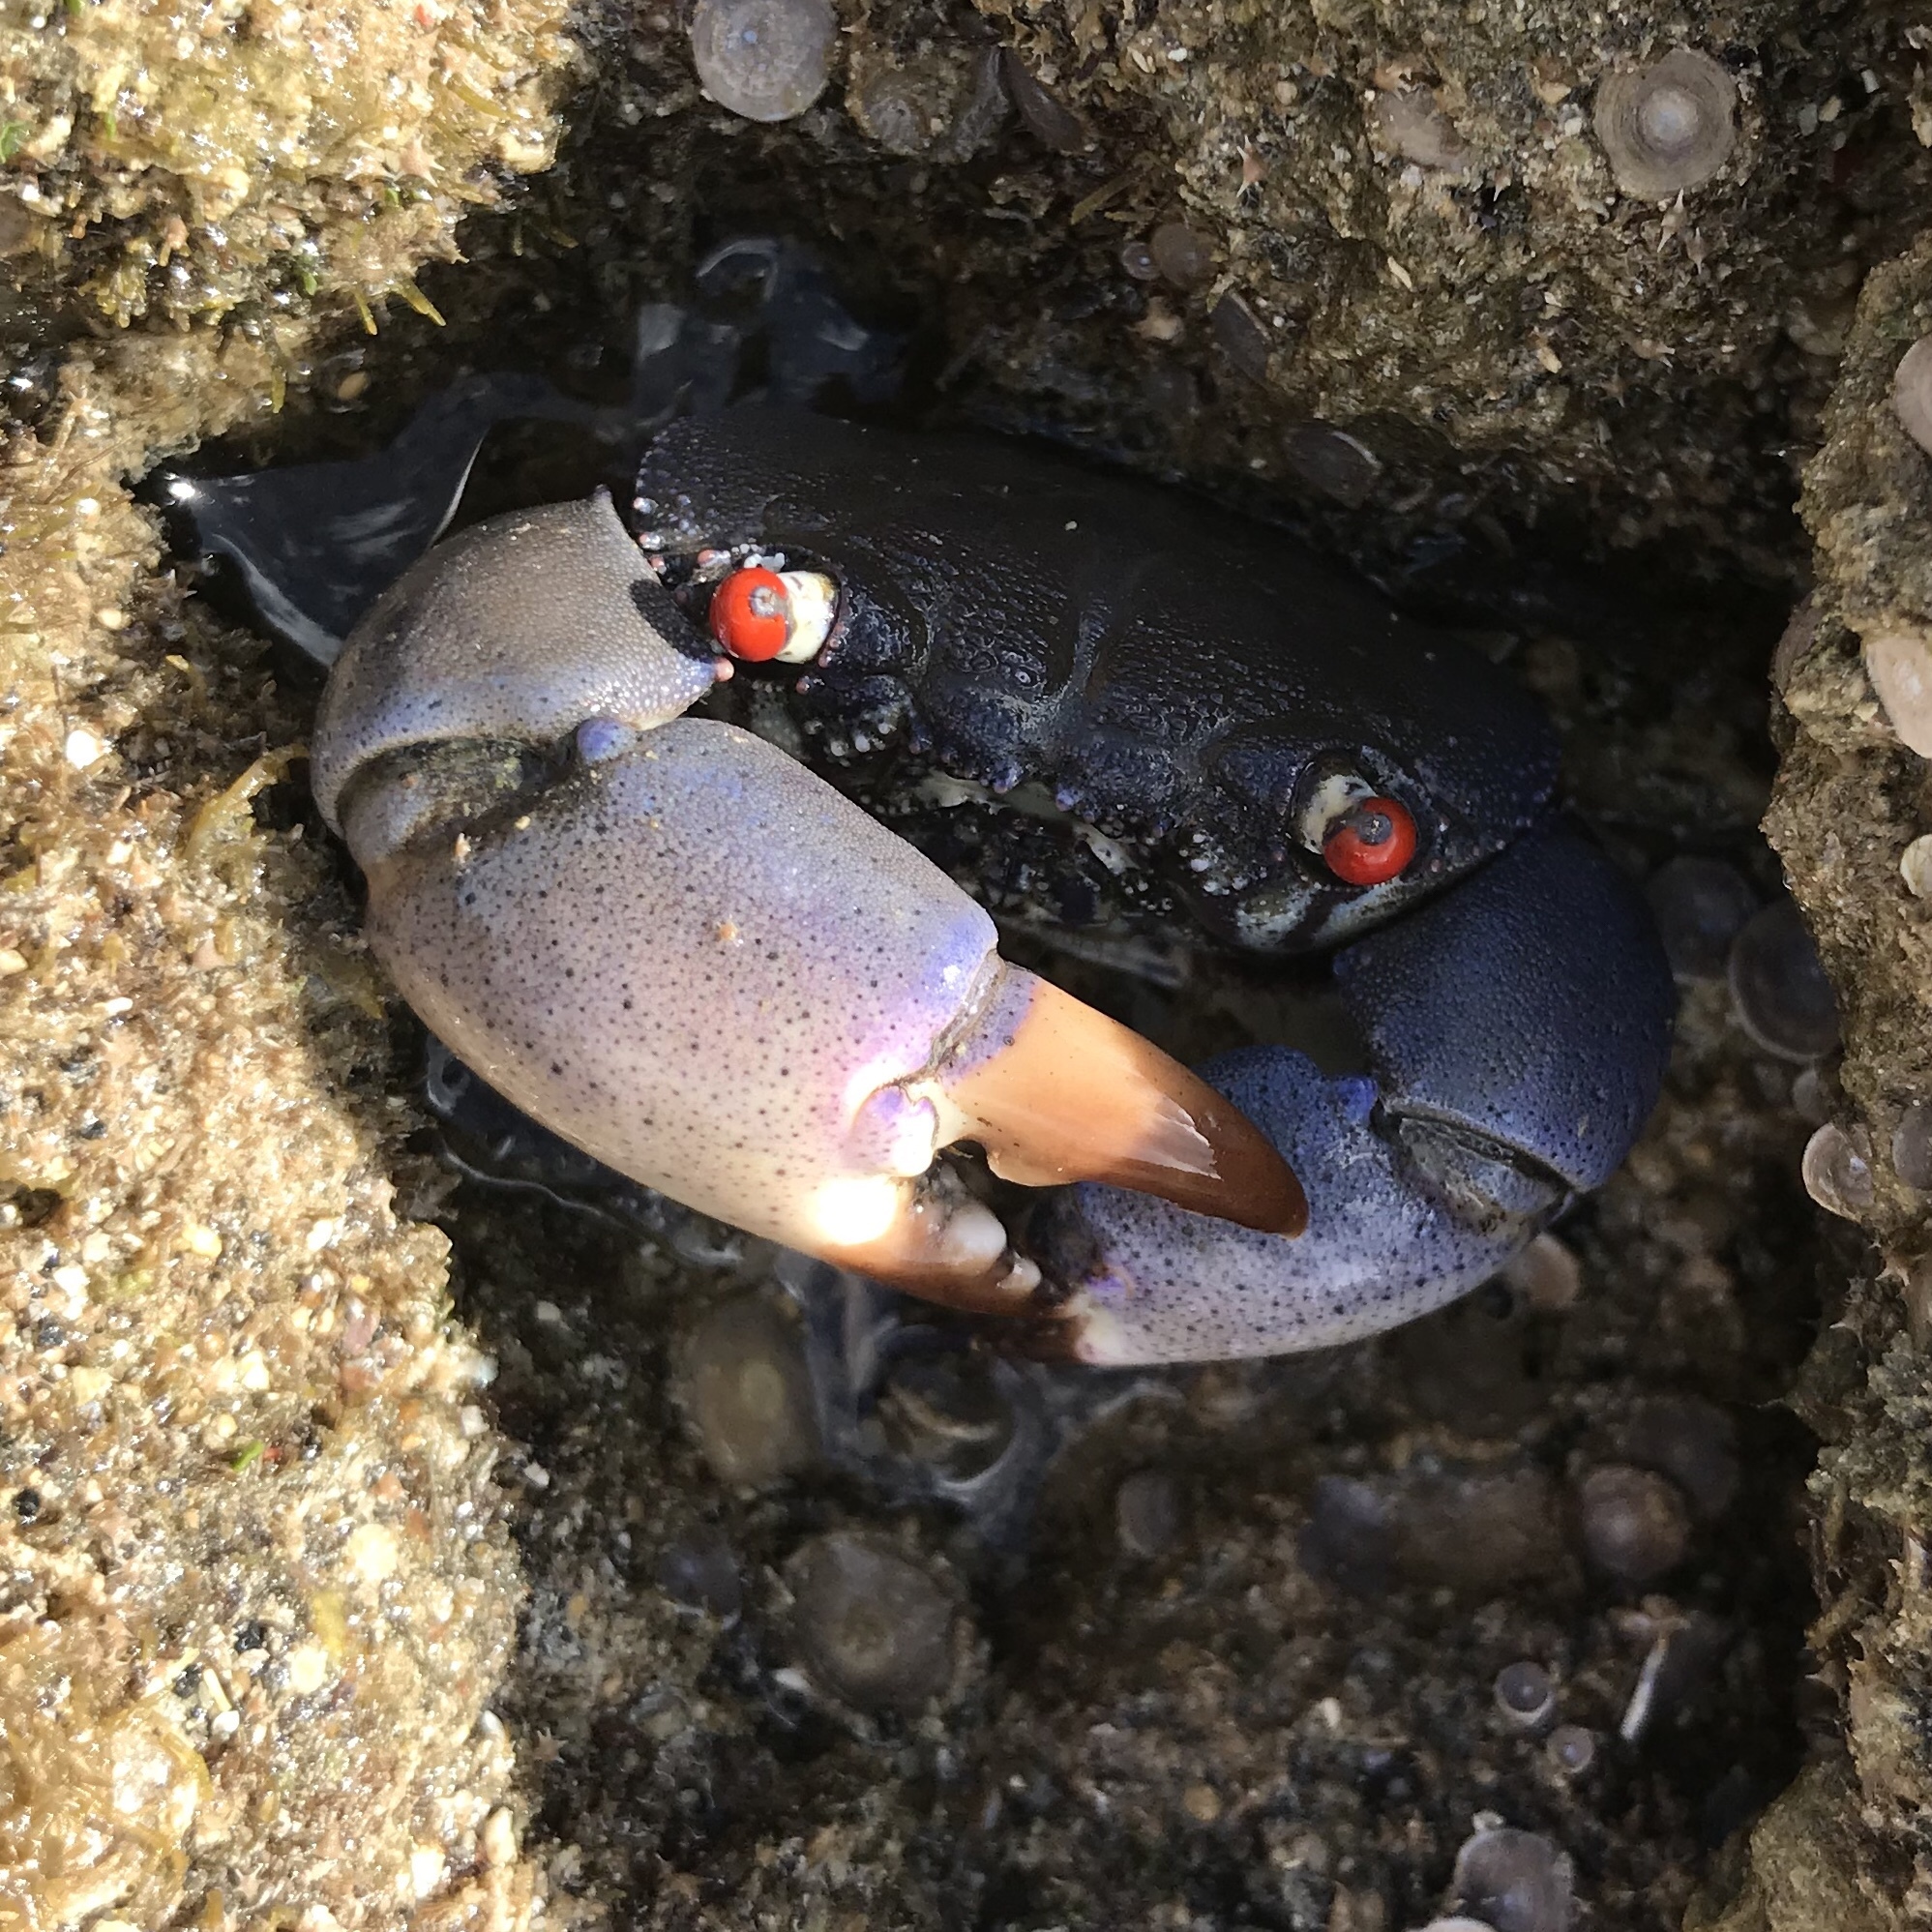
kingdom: Animalia
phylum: Arthropoda
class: Malacostraca
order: Decapoda
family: Eriphiidae
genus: Eriphia
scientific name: Eriphia sebana
